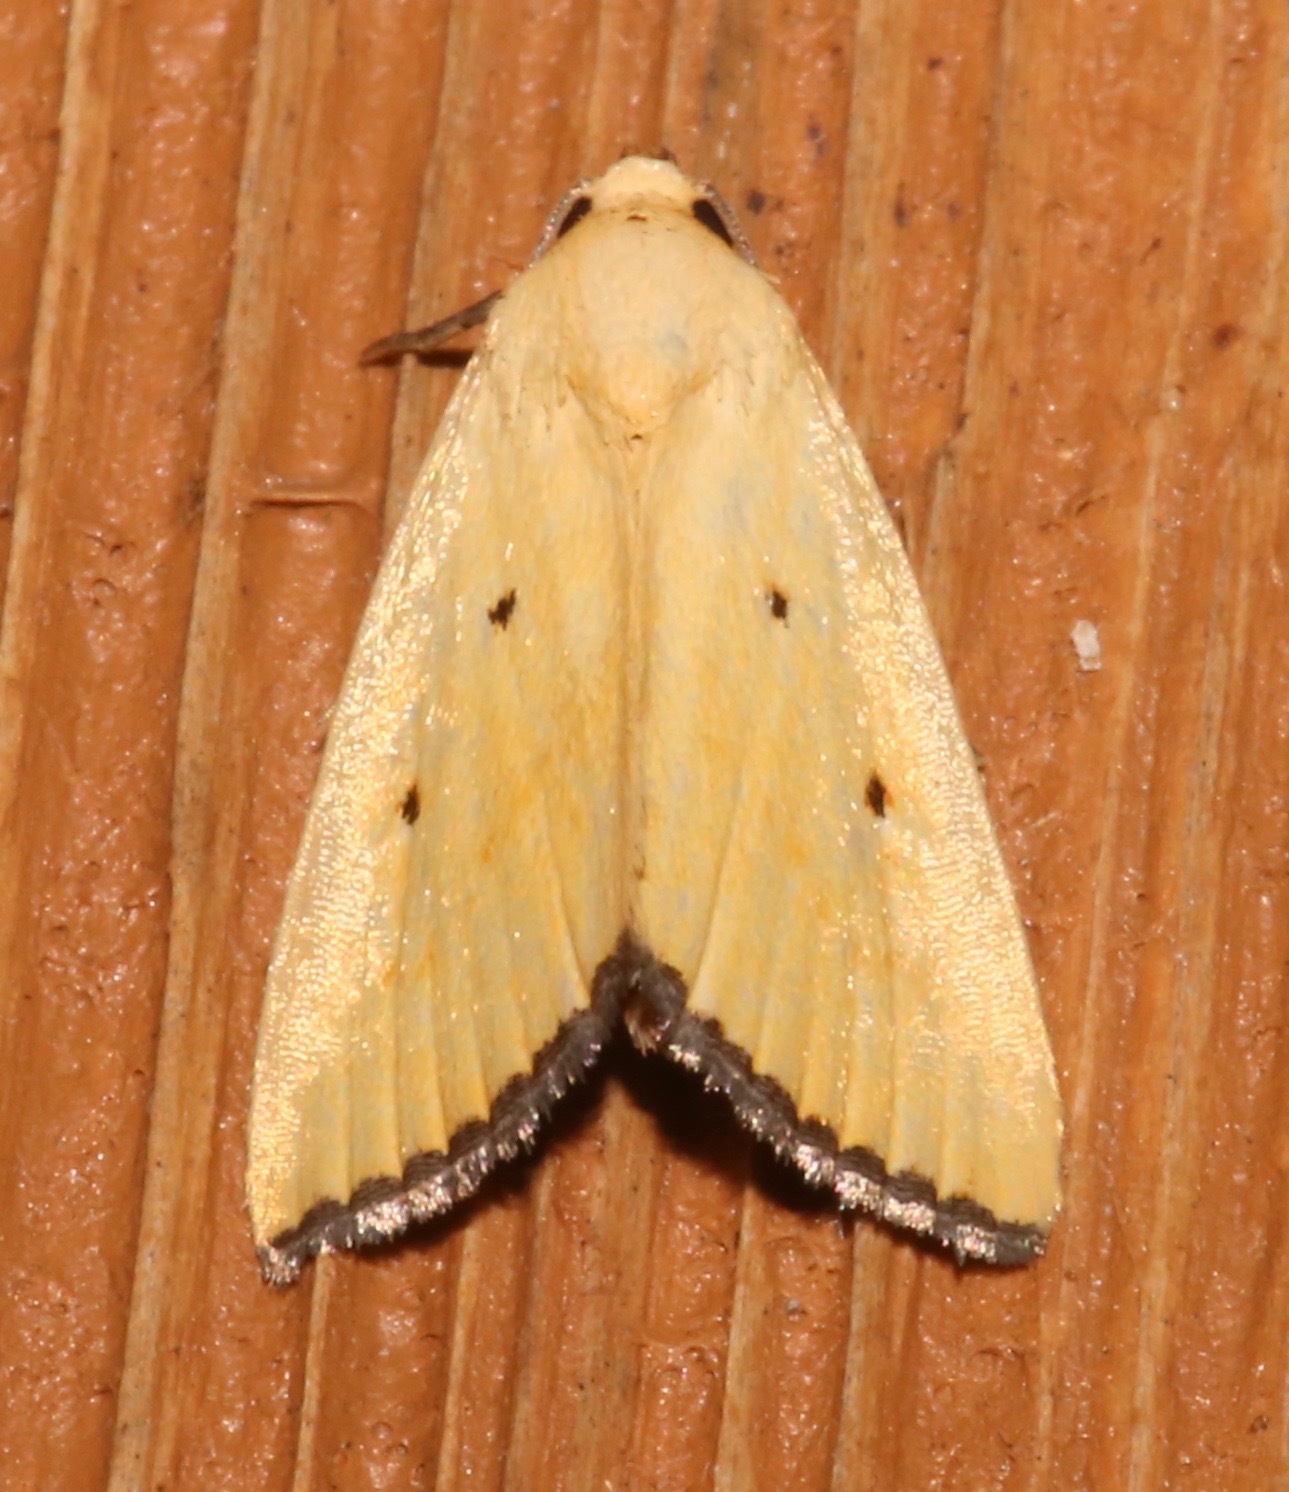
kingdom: Animalia
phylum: Arthropoda
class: Insecta
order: Lepidoptera
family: Noctuidae
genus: Marimatha
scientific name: Marimatha nigrofimbria
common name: Black-bordered lemon moth
